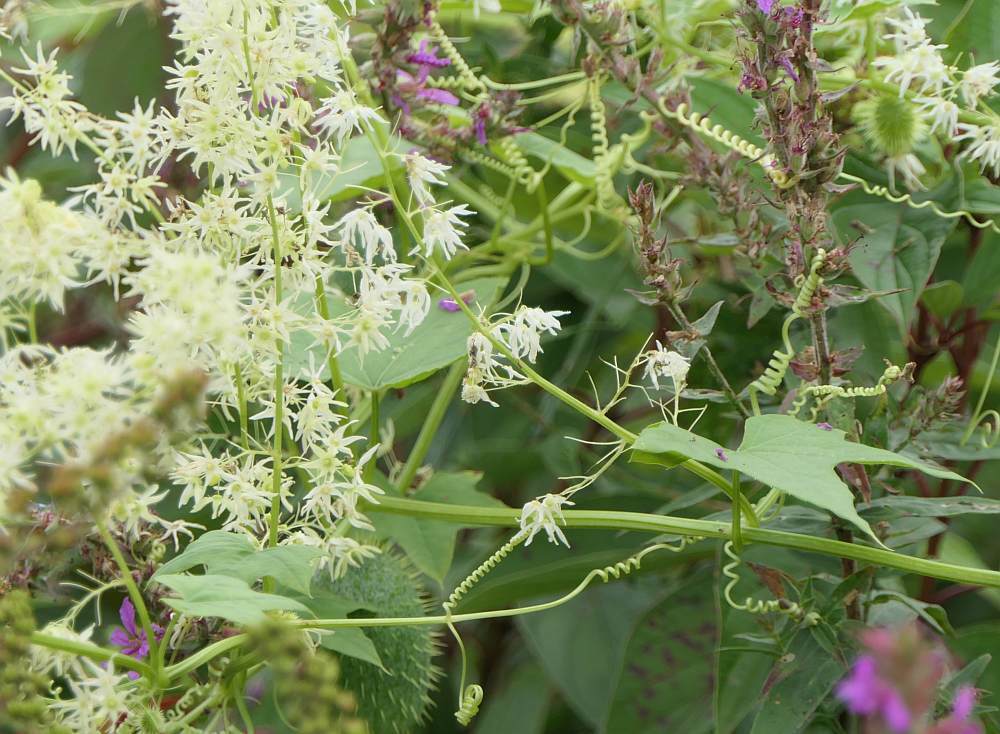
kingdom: Plantae
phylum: Tracheophyta
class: Magnoliopsida
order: Cucurbitales
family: Cucurbitaceae
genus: Echinocystis
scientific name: Echinocystis lobata
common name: Wild cucumber
